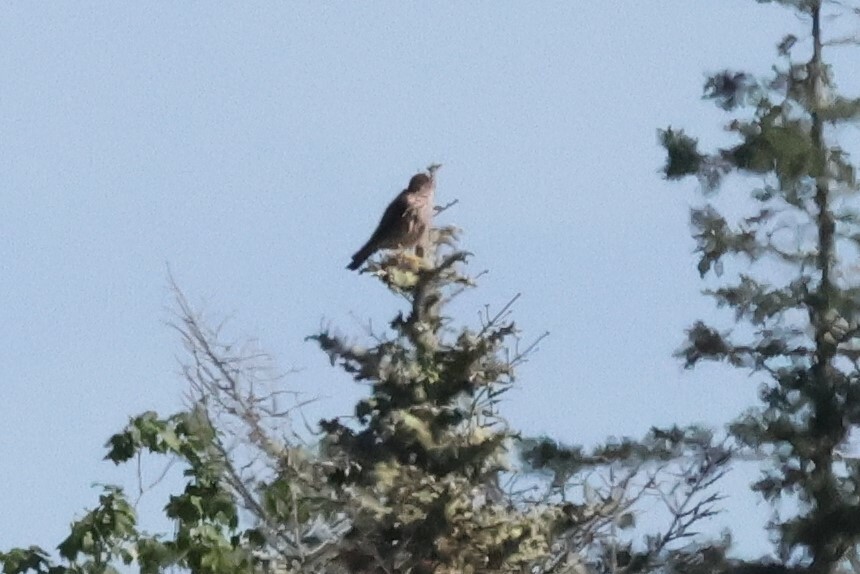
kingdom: Animalia
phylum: Chordata
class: Aves
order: Falconiformes
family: Falconidae
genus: Falco
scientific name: Falco columbarius
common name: Merlin
